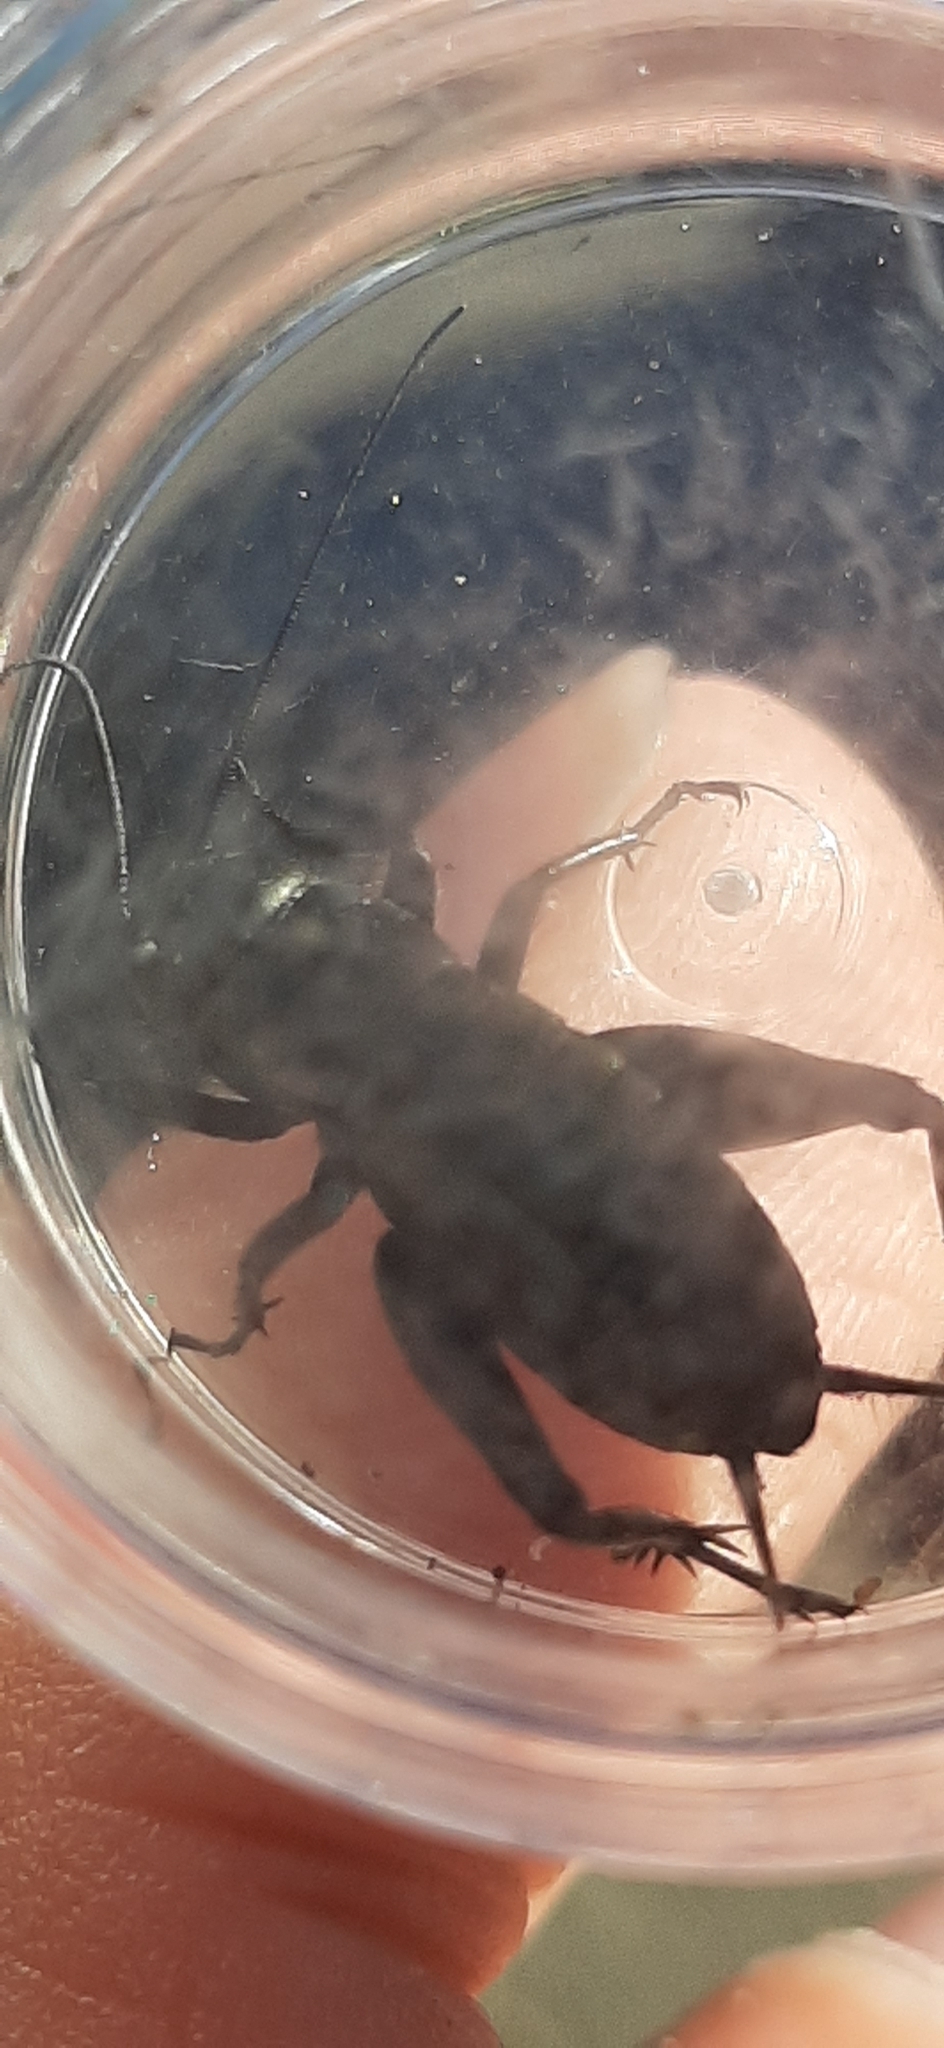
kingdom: Animalia
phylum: Arthropoda
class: Insecta
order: Orthoptera
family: Gryllidae
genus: Gryllus
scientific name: Gryllus campestris
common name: Field cricket
